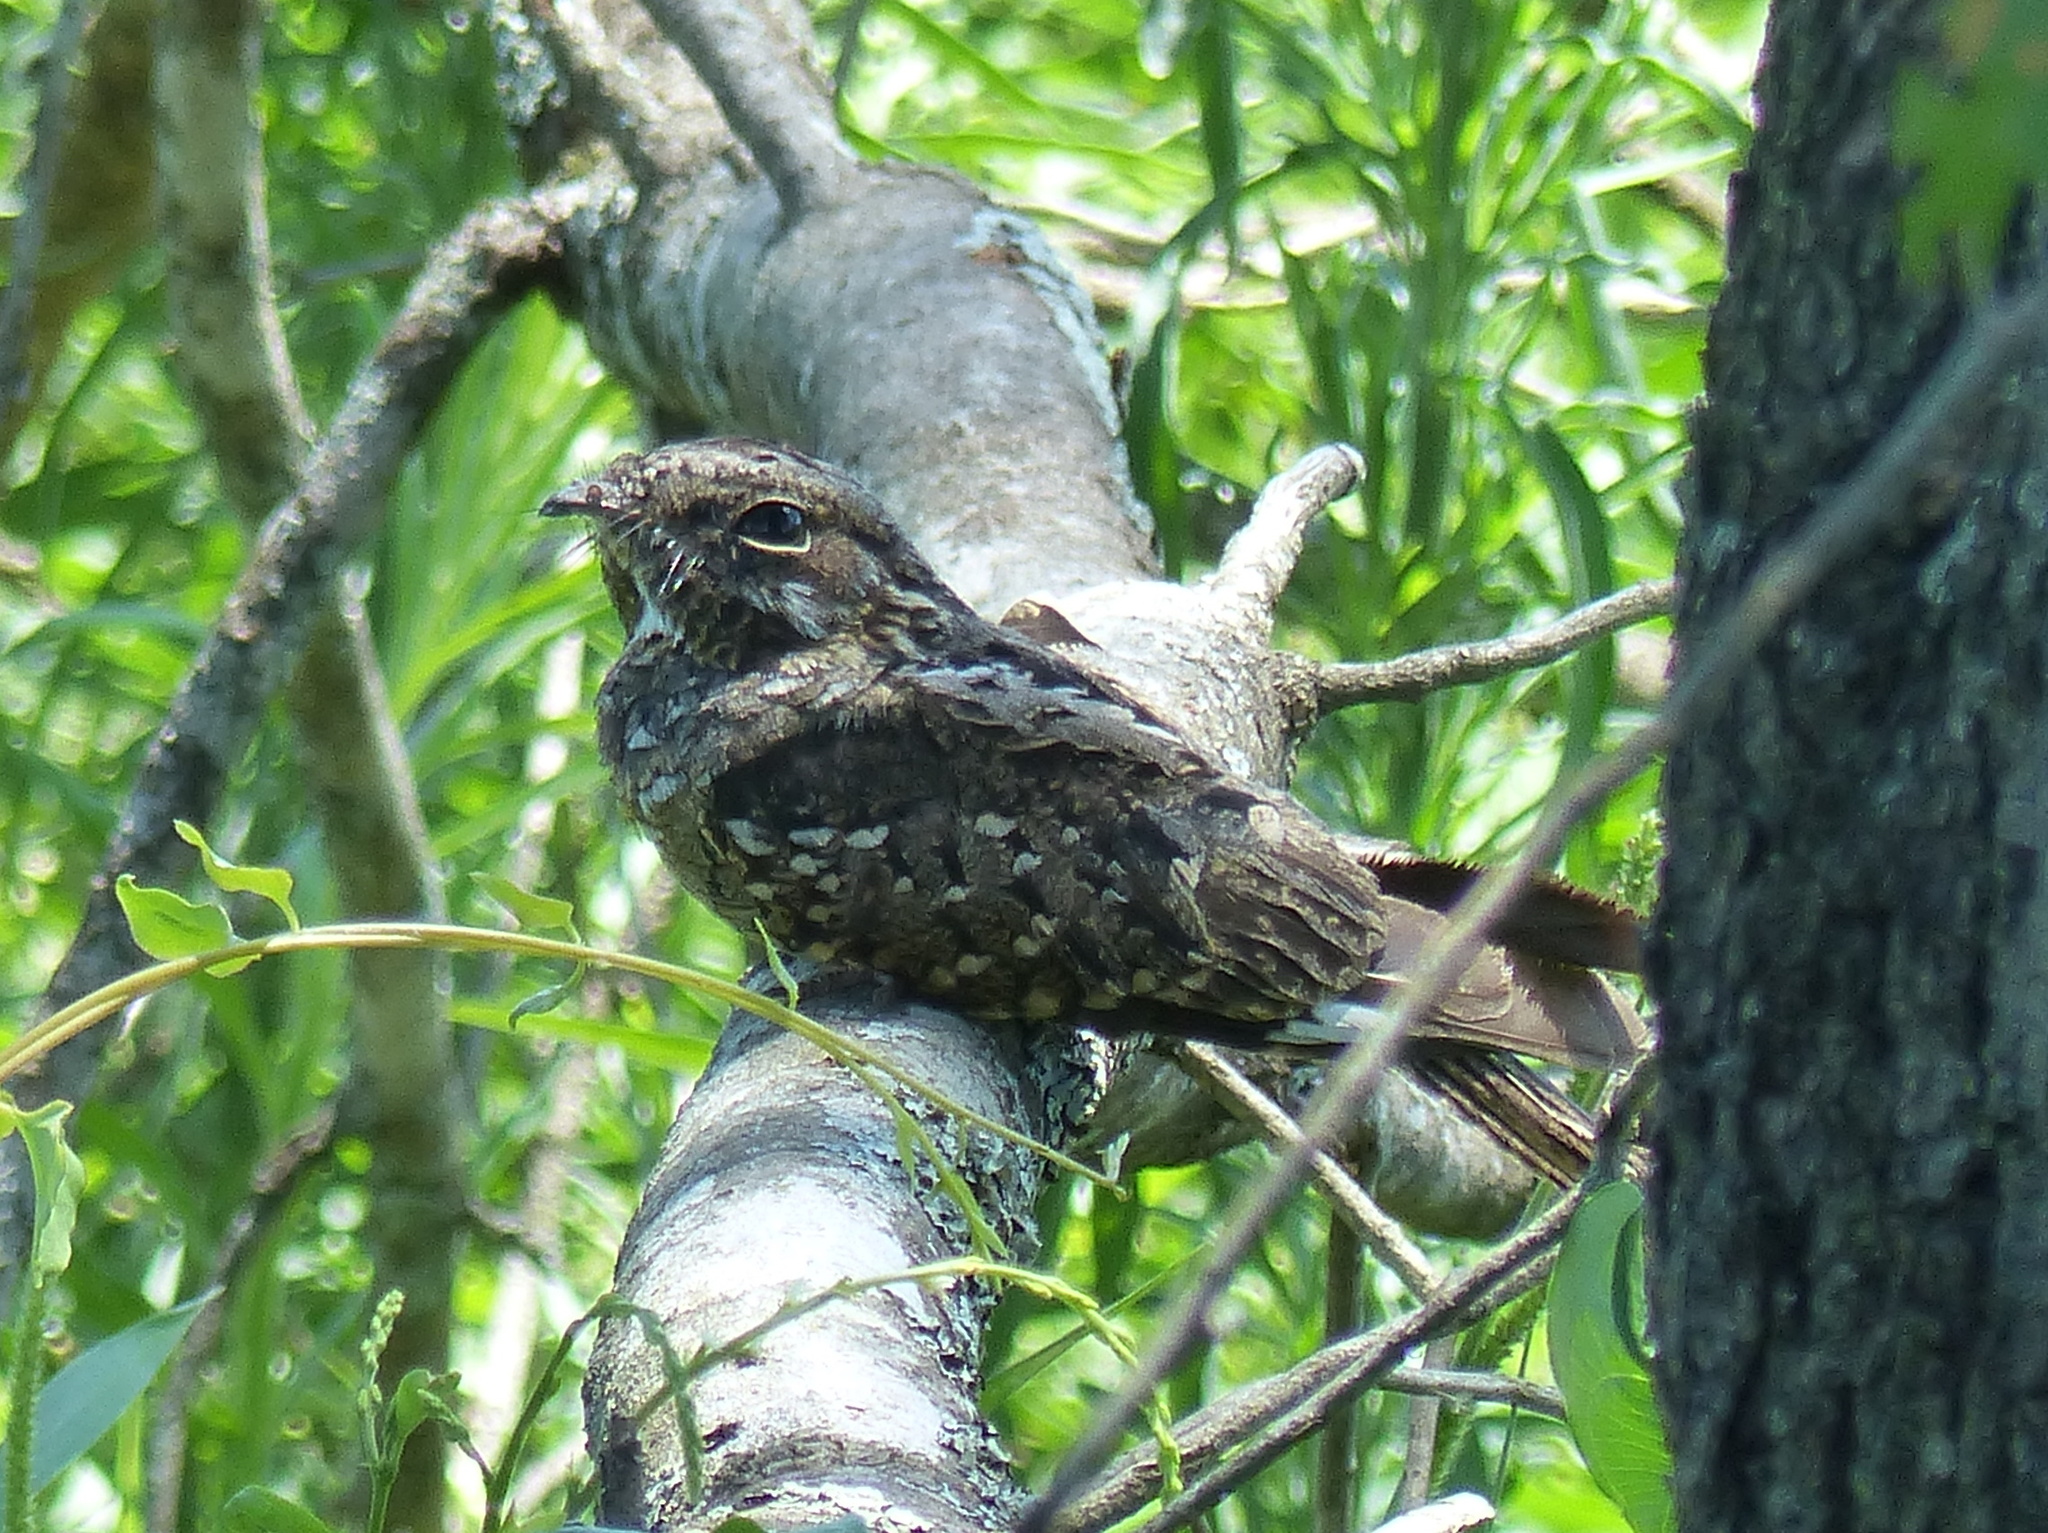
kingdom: Animalia
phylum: Chordata
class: Aves
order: Caprimulgiformes
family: Caprimulgidae
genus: Nyctidromus
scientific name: Nyctidromus albicollis
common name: Pauraque
